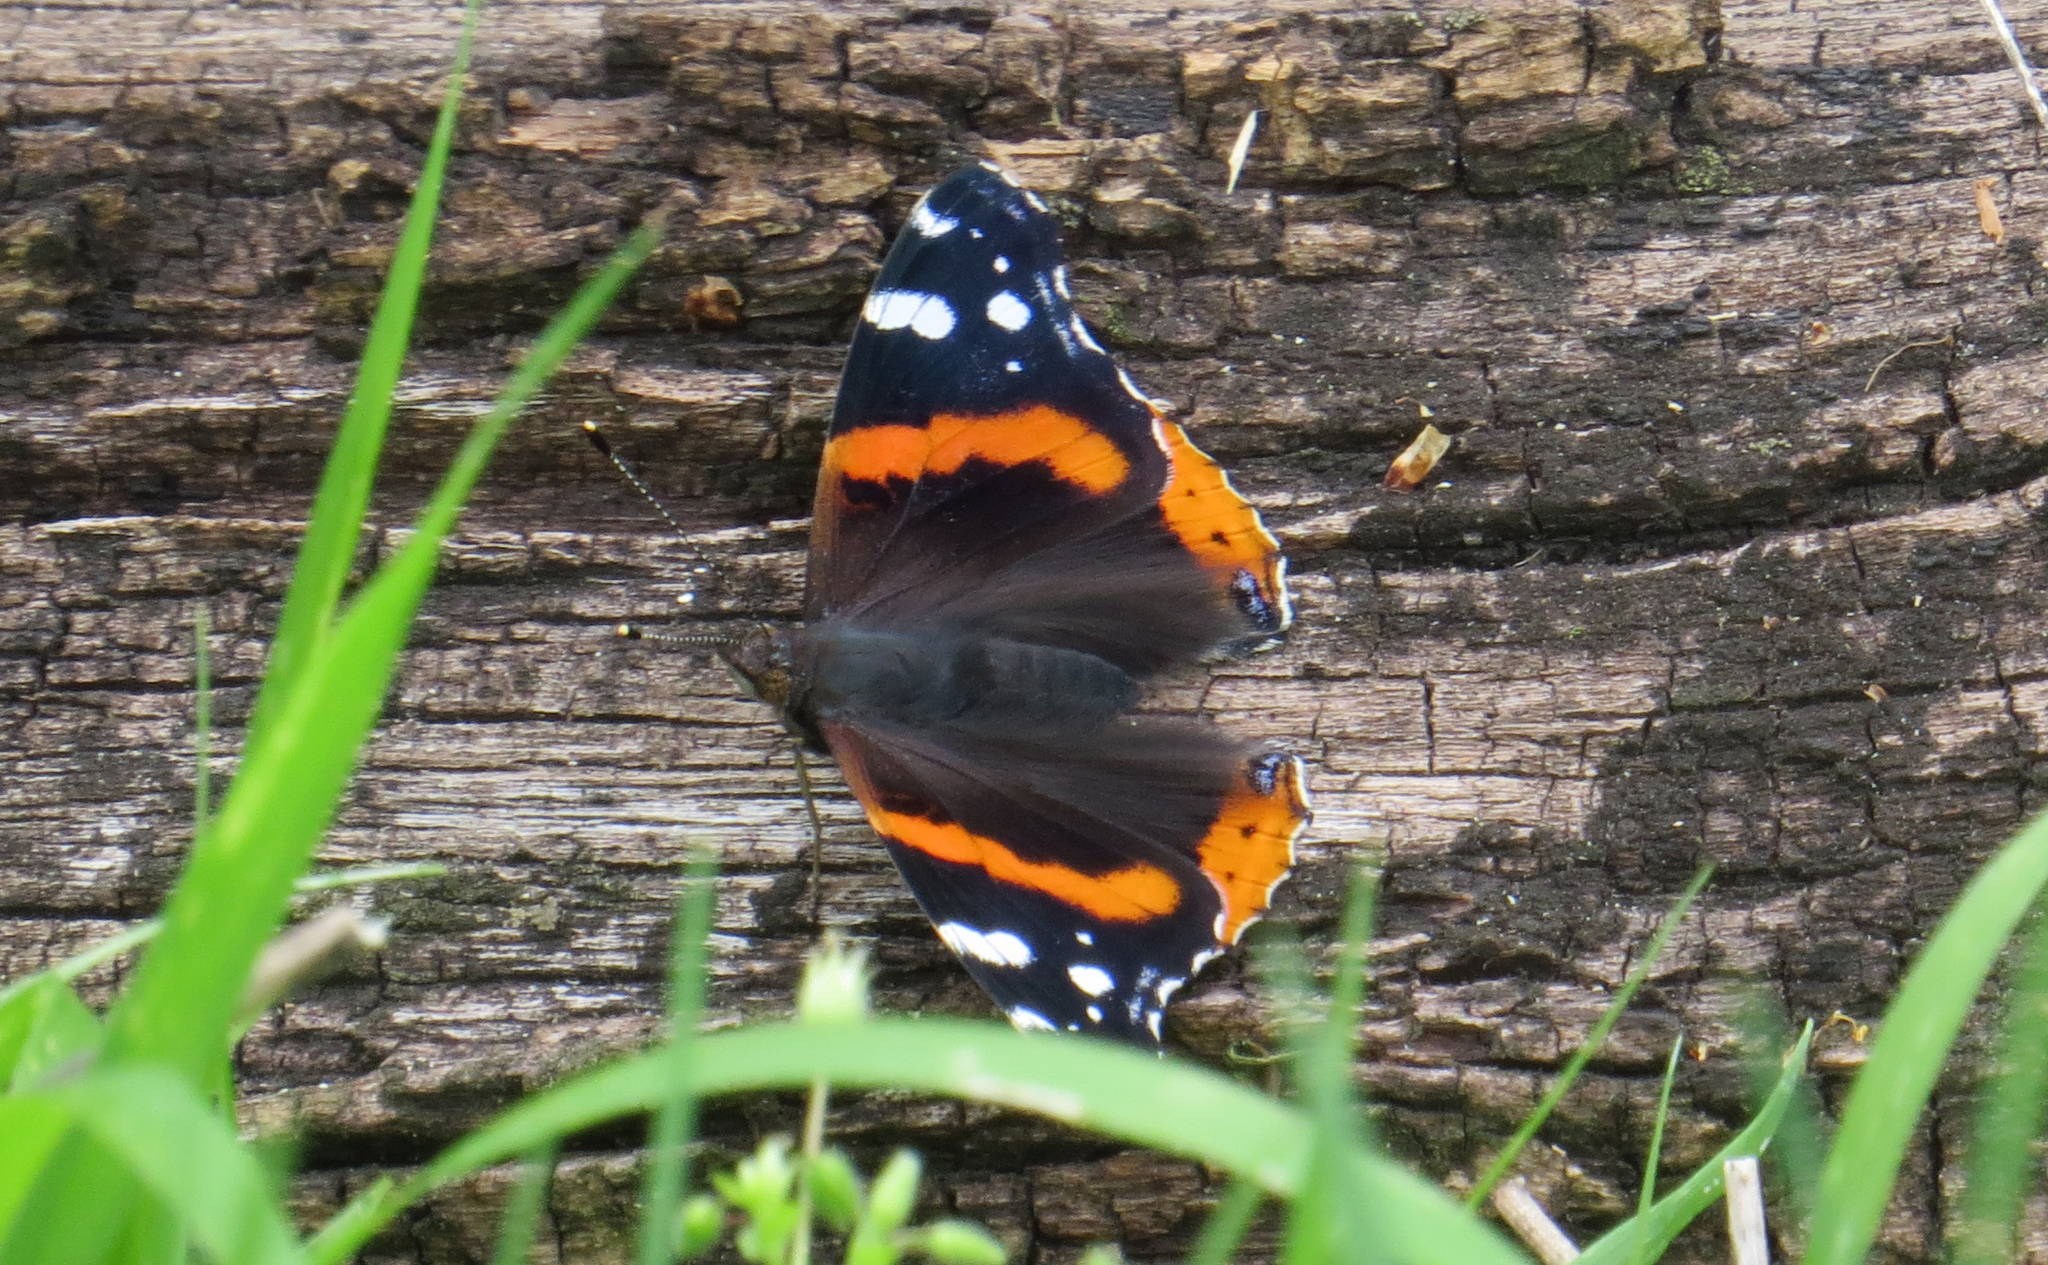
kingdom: Animalia
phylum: Arthropoda
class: Insecta
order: Lepidoptera
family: Nymphalidae
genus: Vanessa
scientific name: Vanessa atalanta
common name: Red admiral
